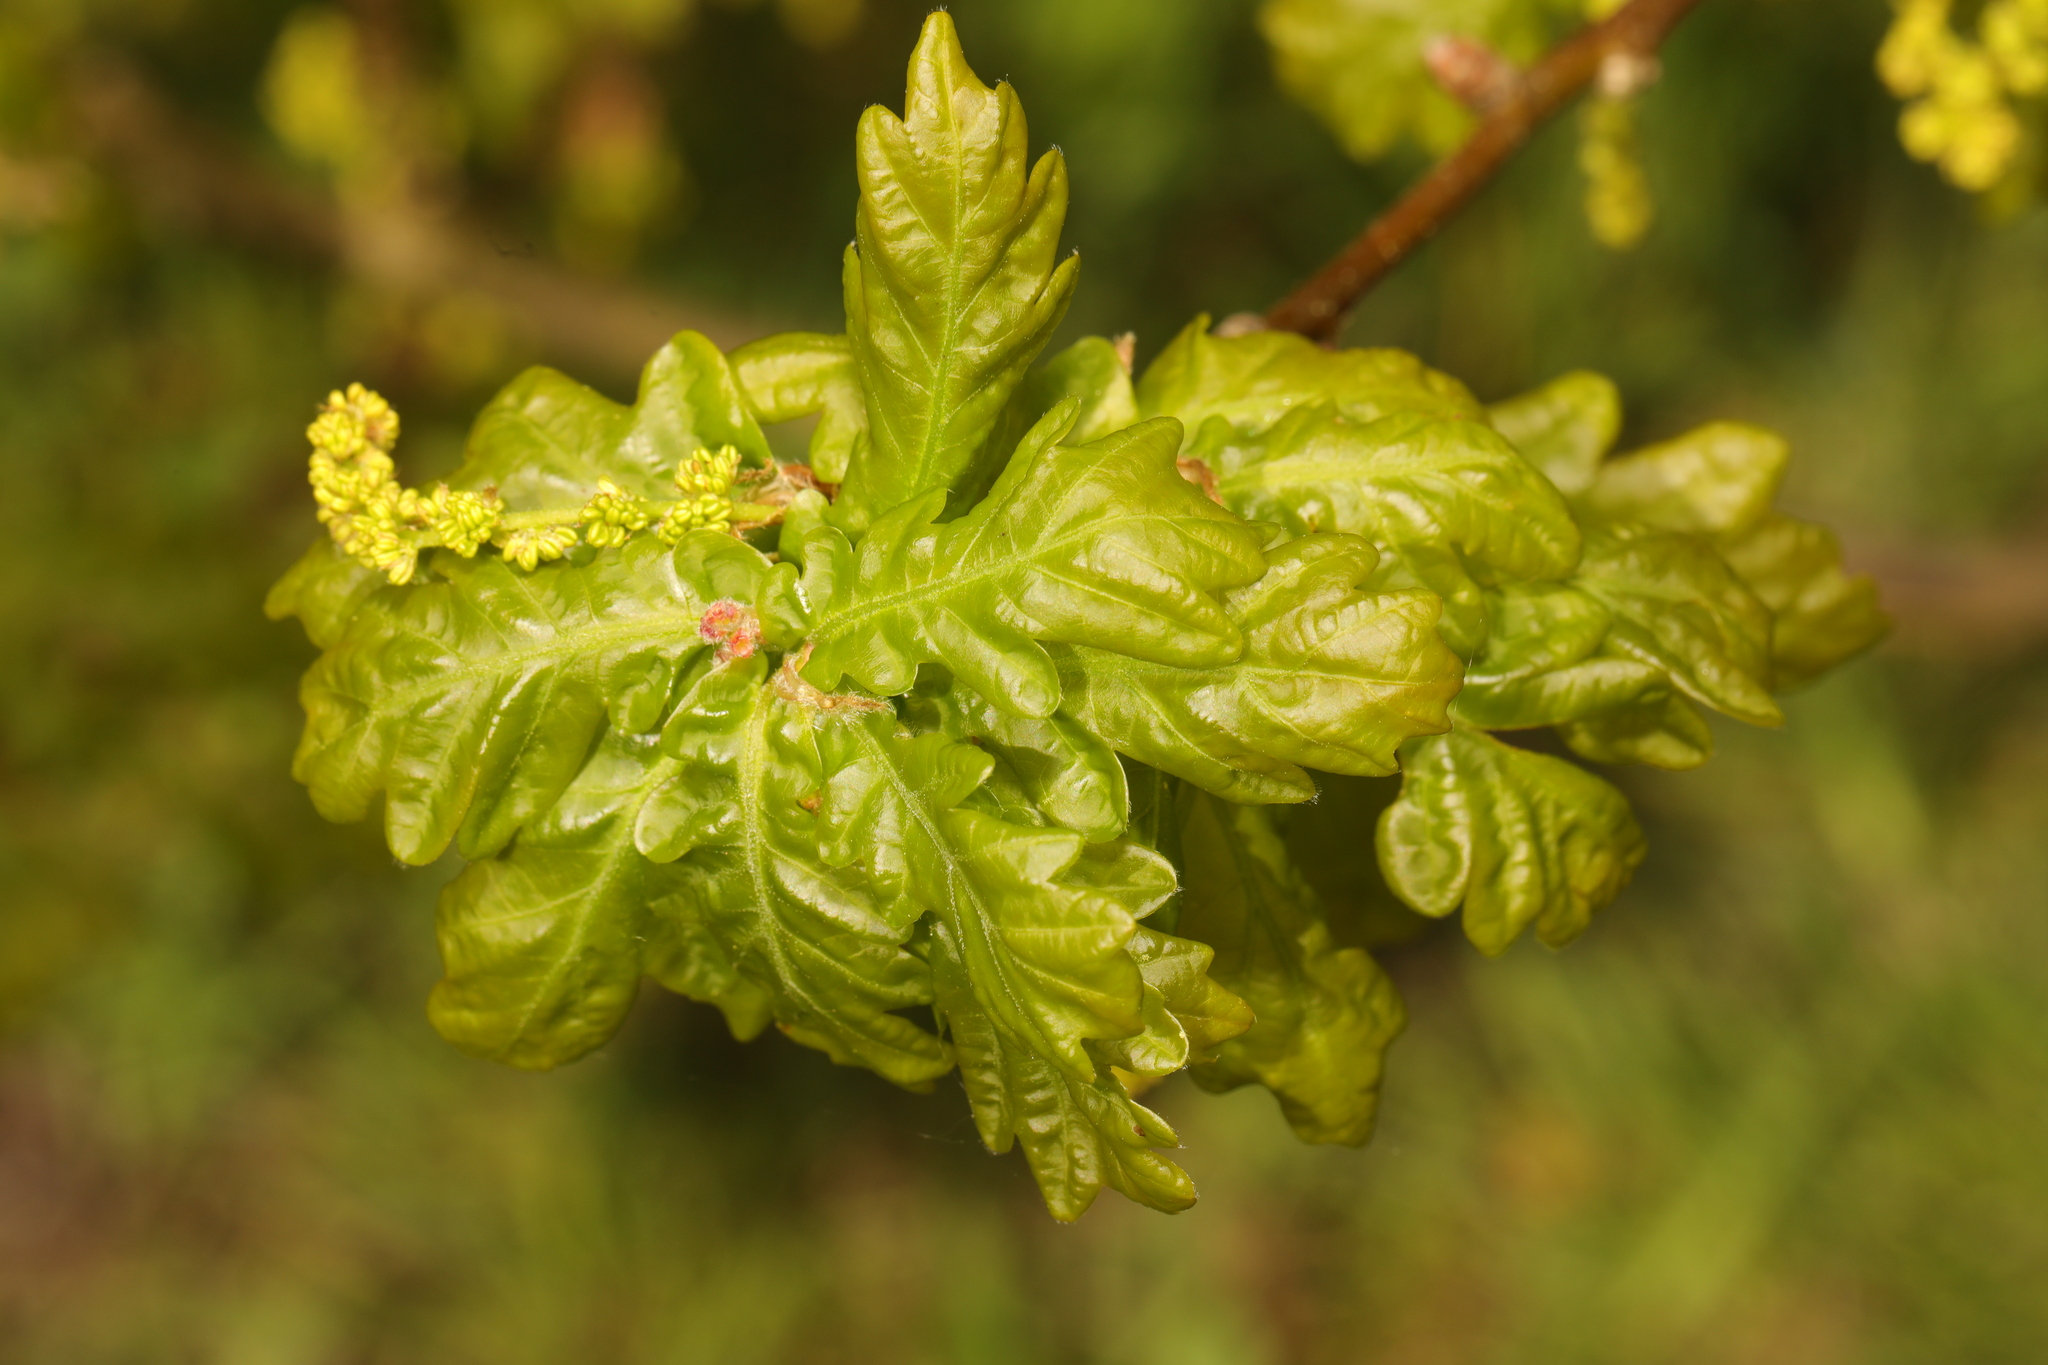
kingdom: Plantae
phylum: Tracheophyta
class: Magnoliopsida
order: Fagales
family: Fagaceae
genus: Quercus
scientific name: Quercus robur
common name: Pedunculate oak
